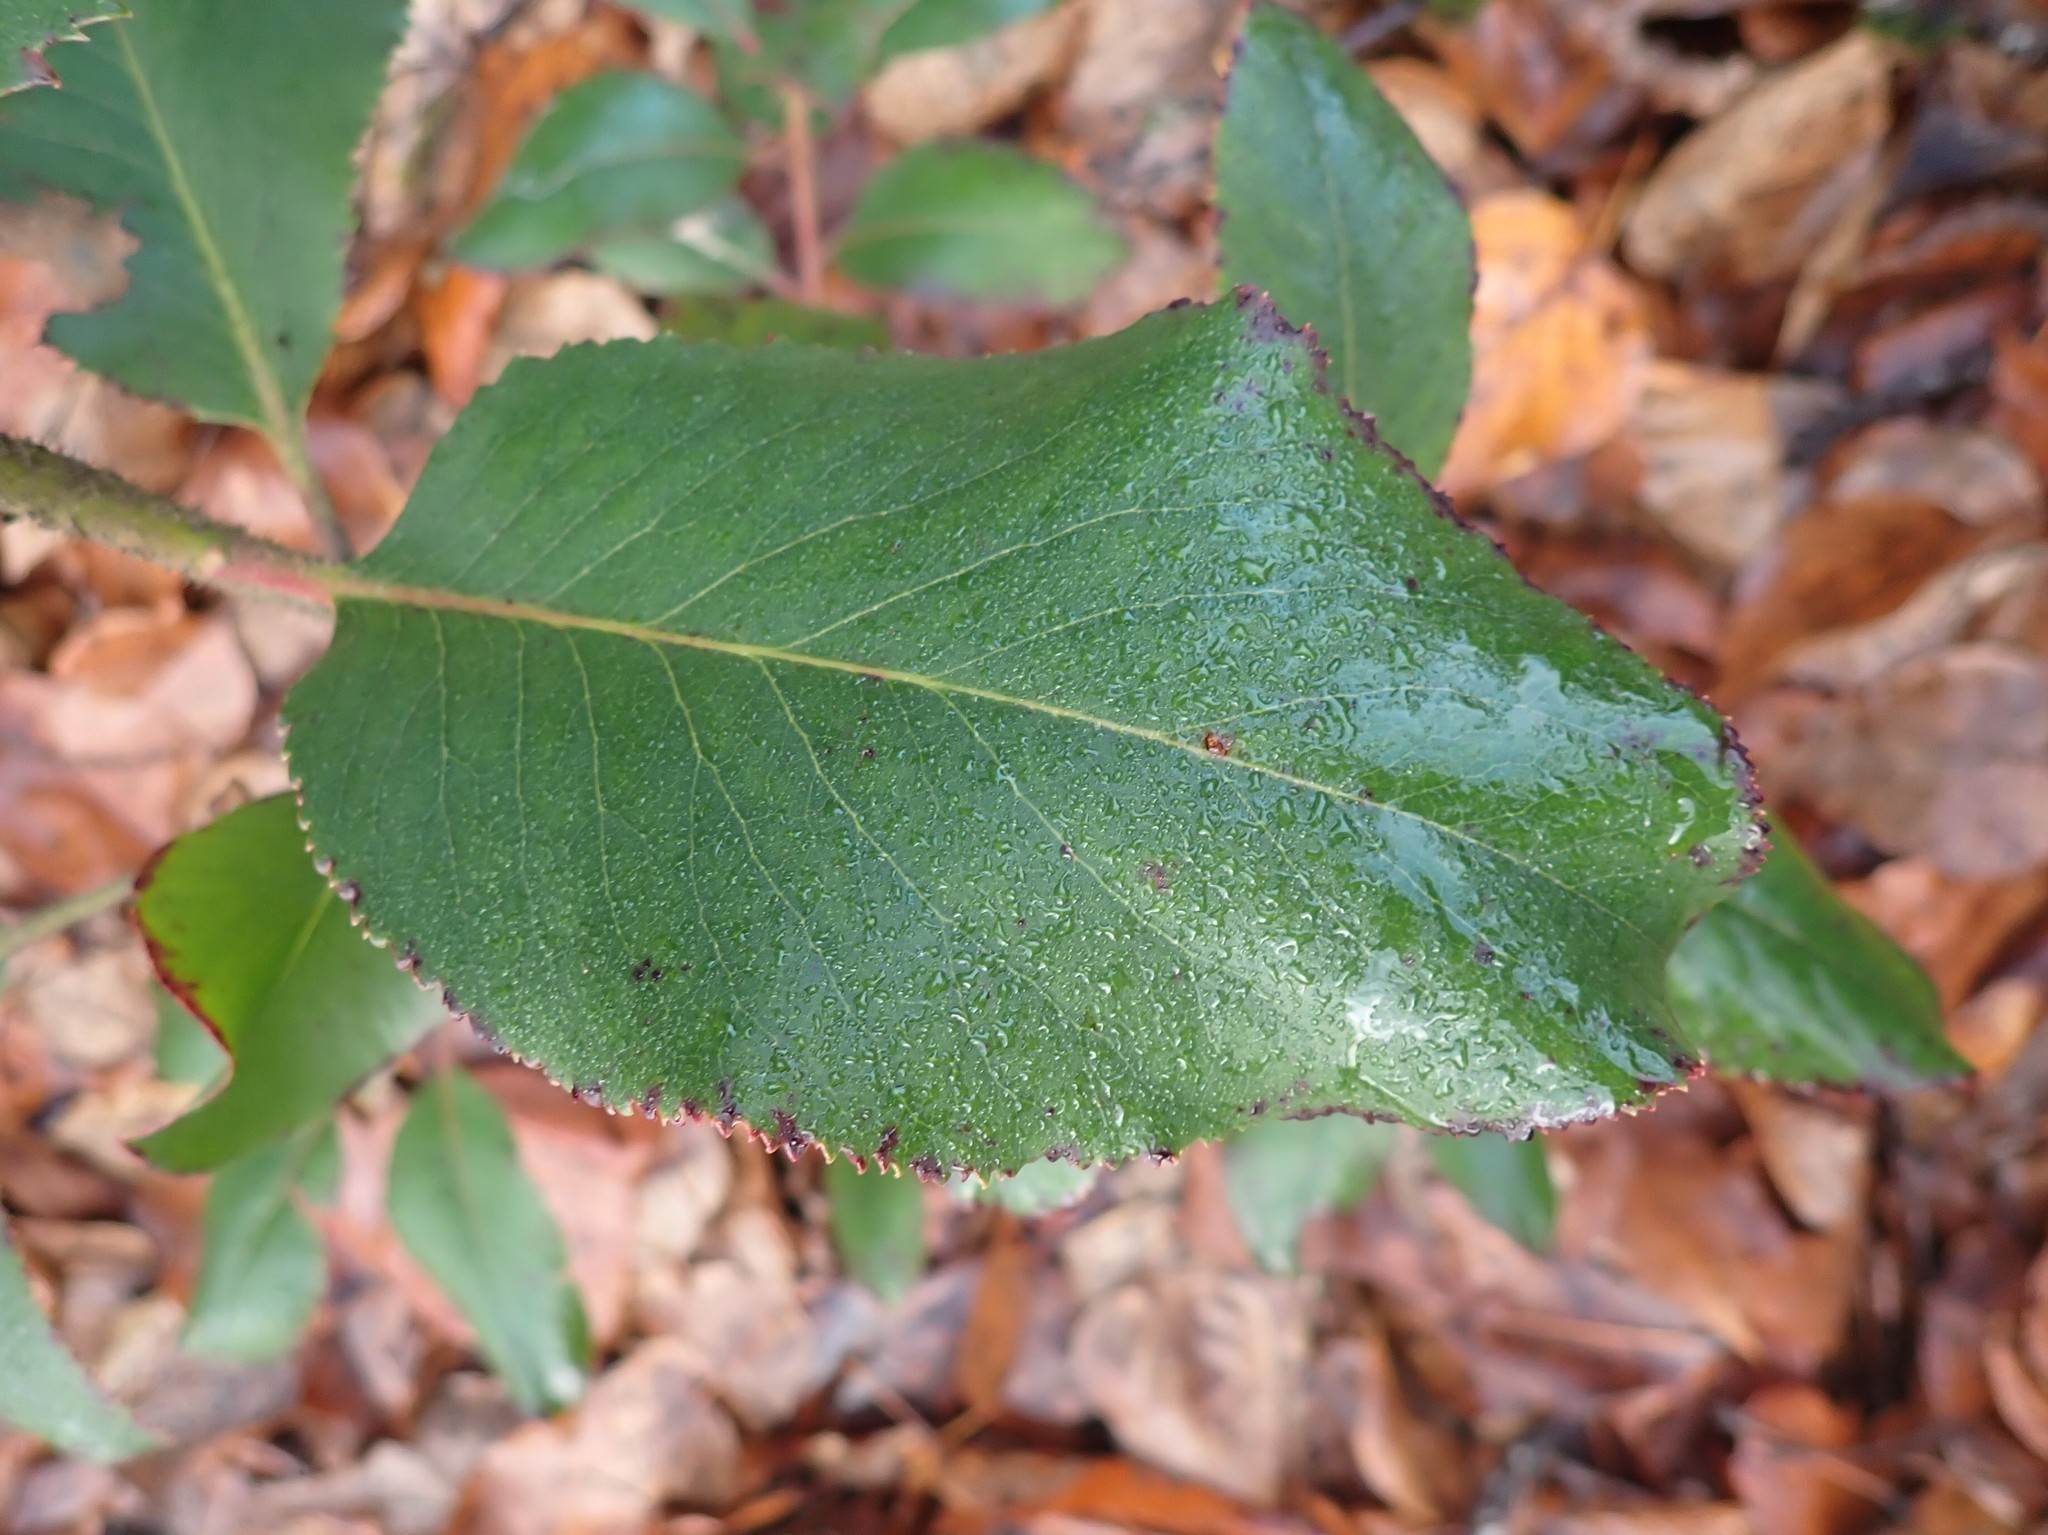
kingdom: Plantae
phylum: Tracheophyta
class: Magnoliopsida
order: Ericales
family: Ericaceae
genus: Arbutus
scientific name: Arbutus menziesii
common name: Pacific madrone
